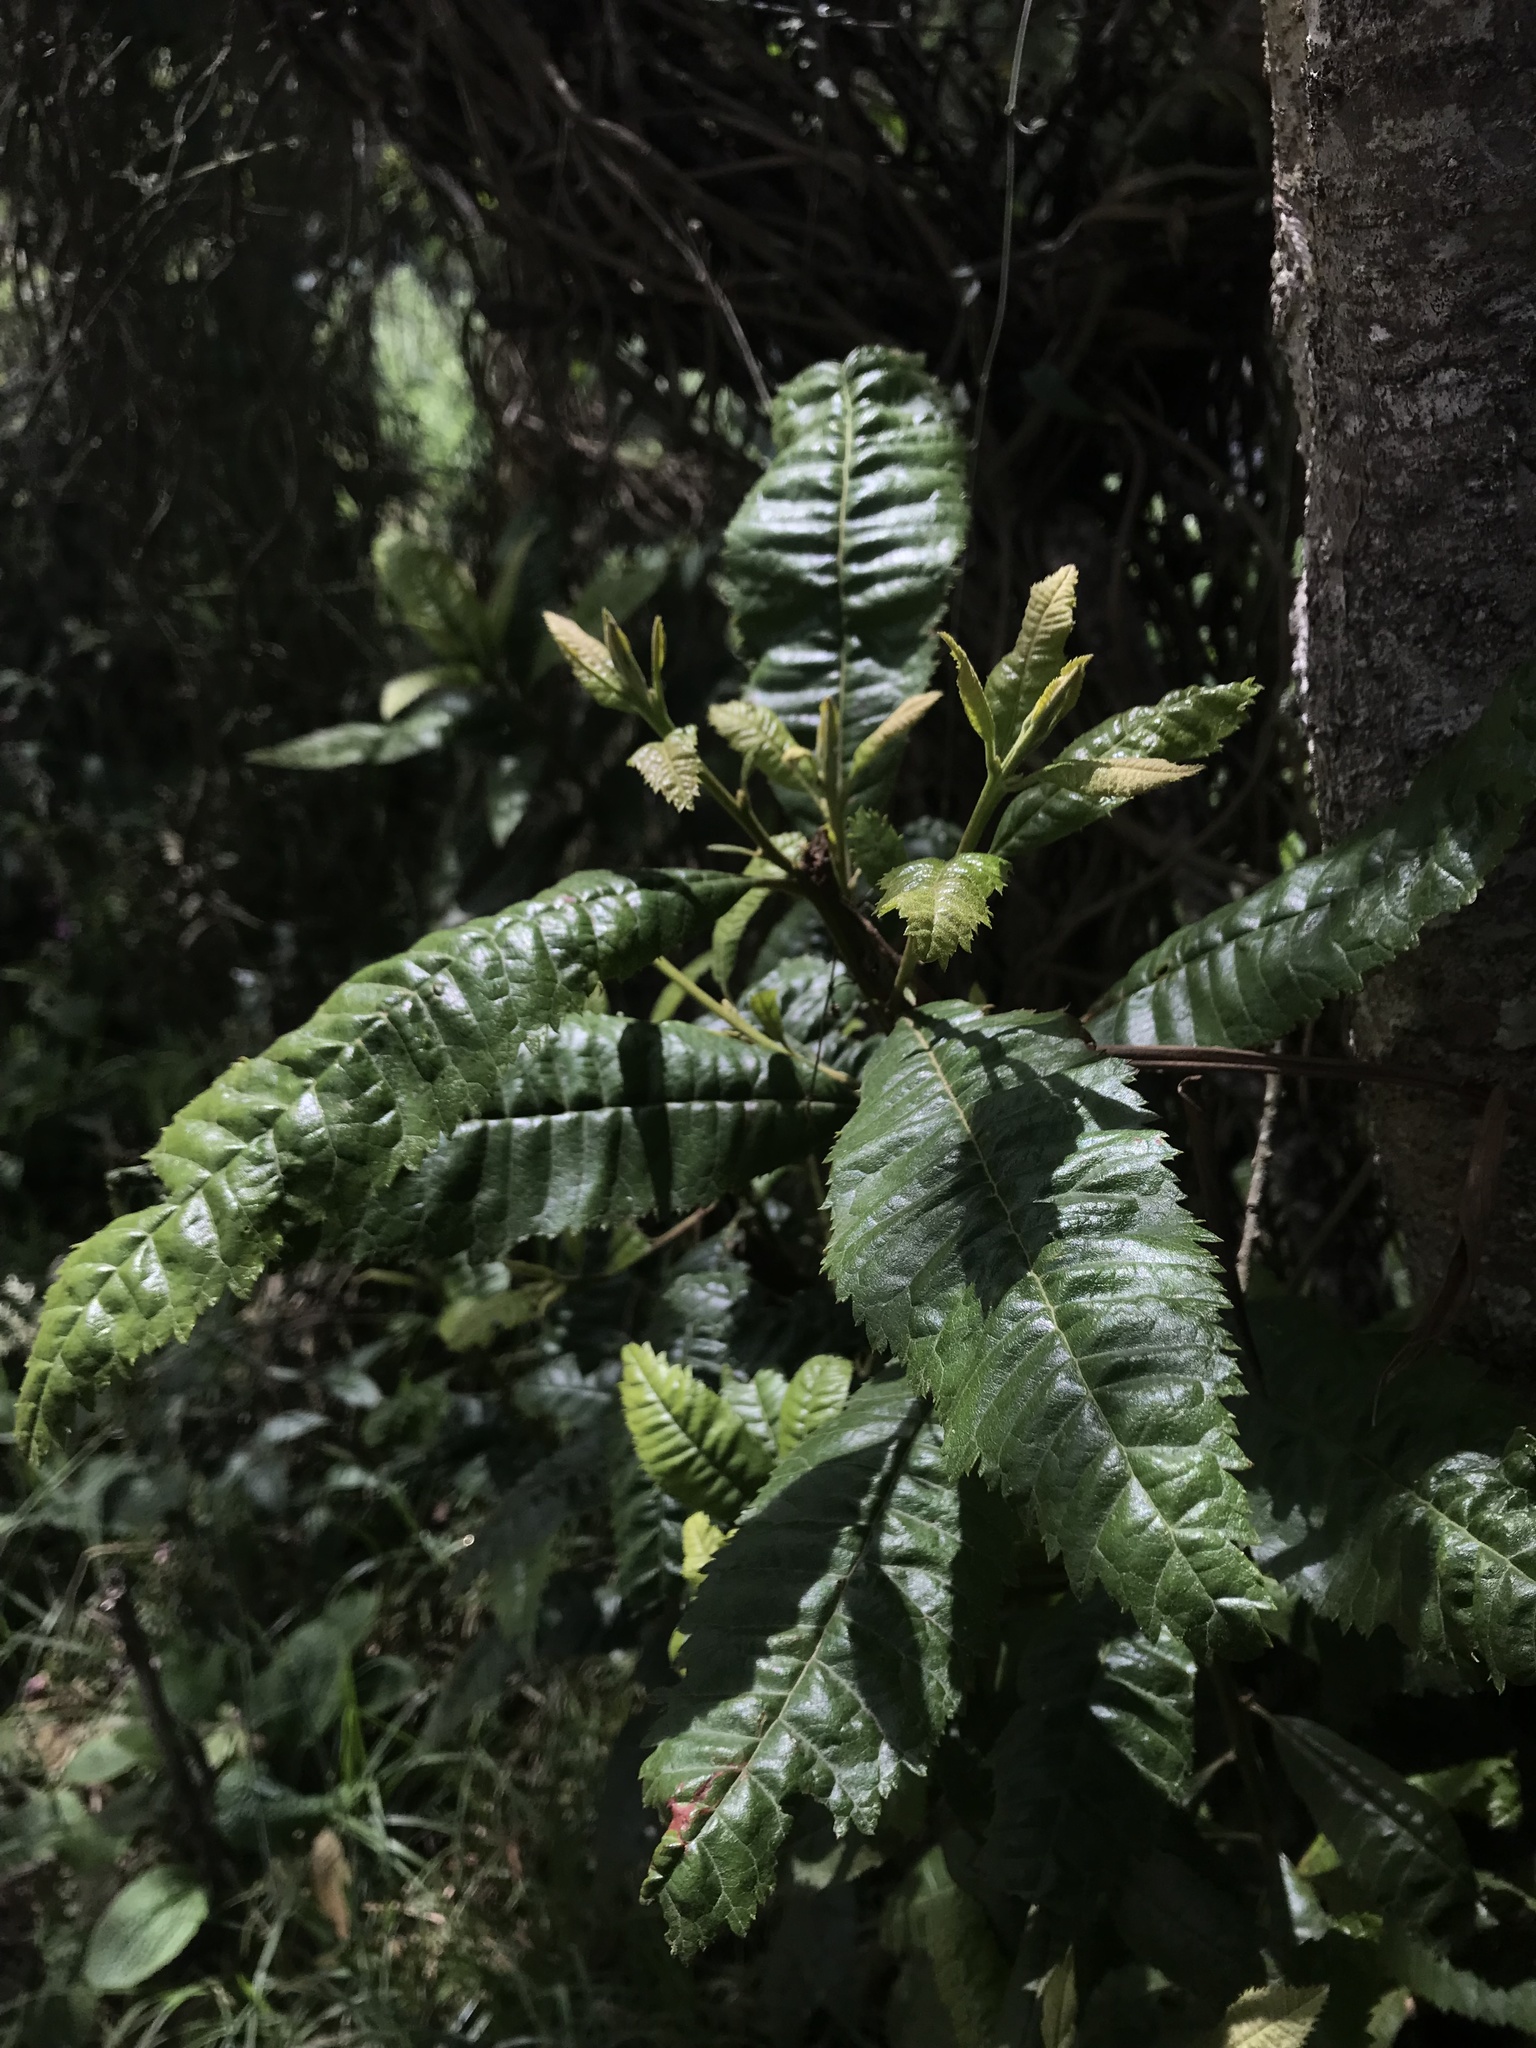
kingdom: Plantae
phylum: Tracheophyta
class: Magnoliopsida
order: Fagales
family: Myricaceae
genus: Morella
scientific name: Morella pubescens
